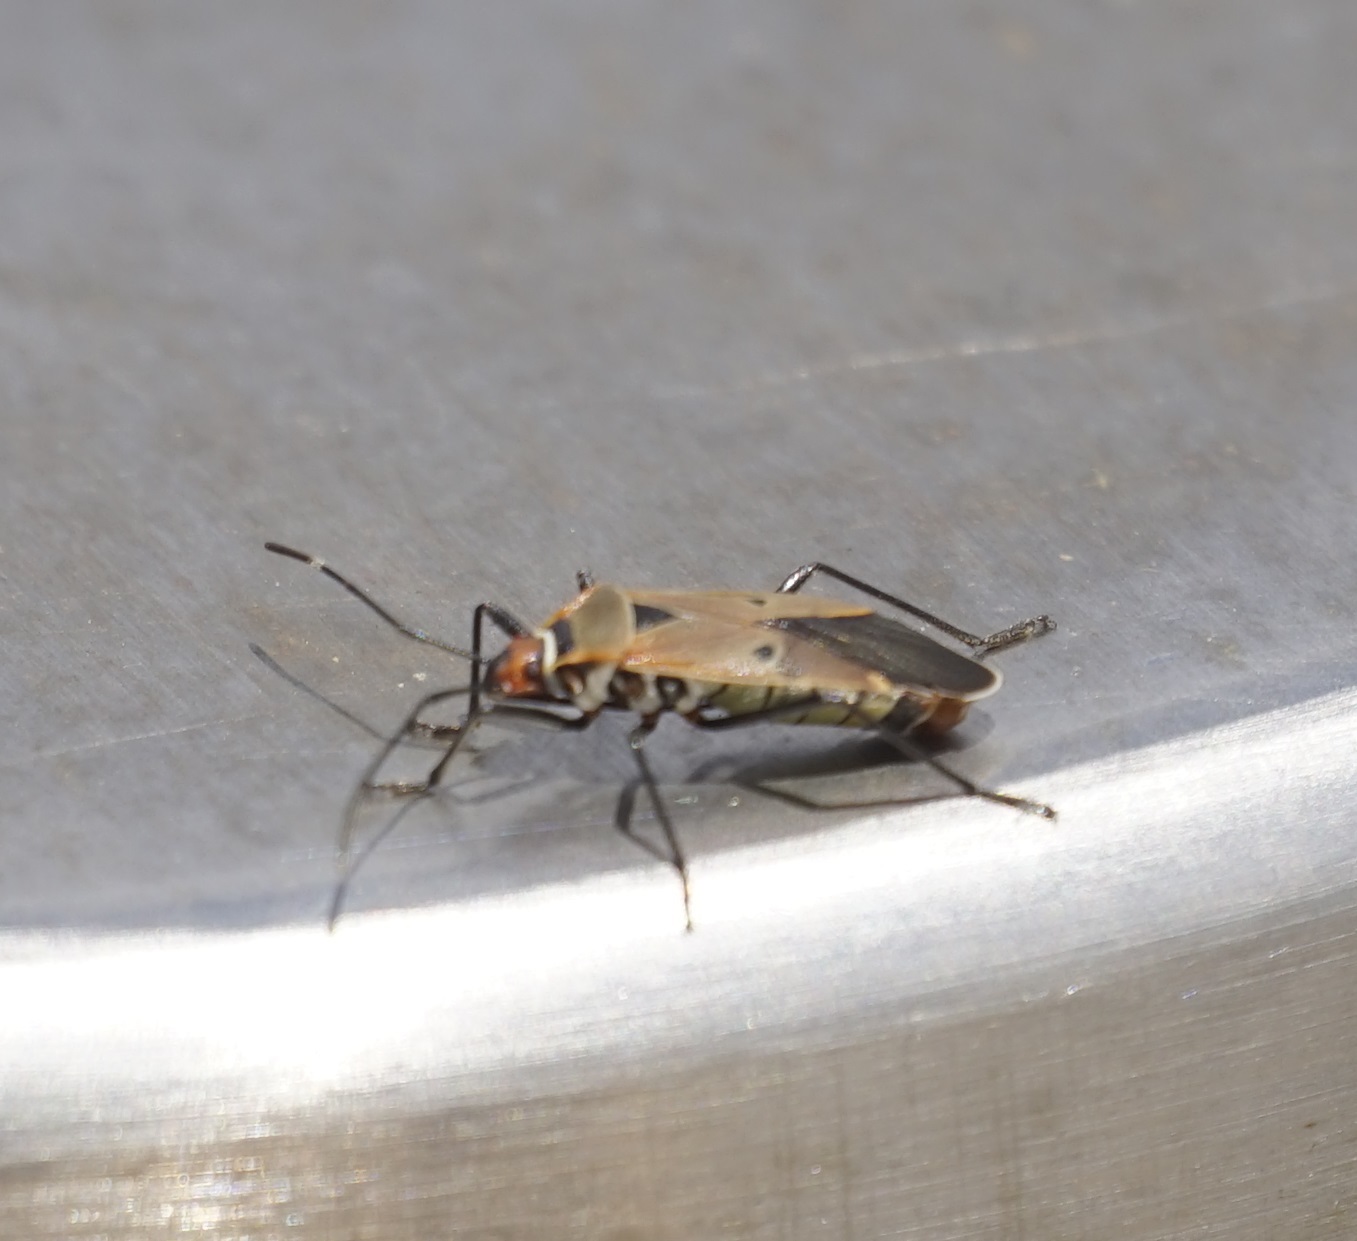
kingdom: Animalia
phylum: Arthropoda
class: Insecta
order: Hemiptera
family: Pyrrhocoridae
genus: Dysdercus
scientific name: Dysdercus sidae
